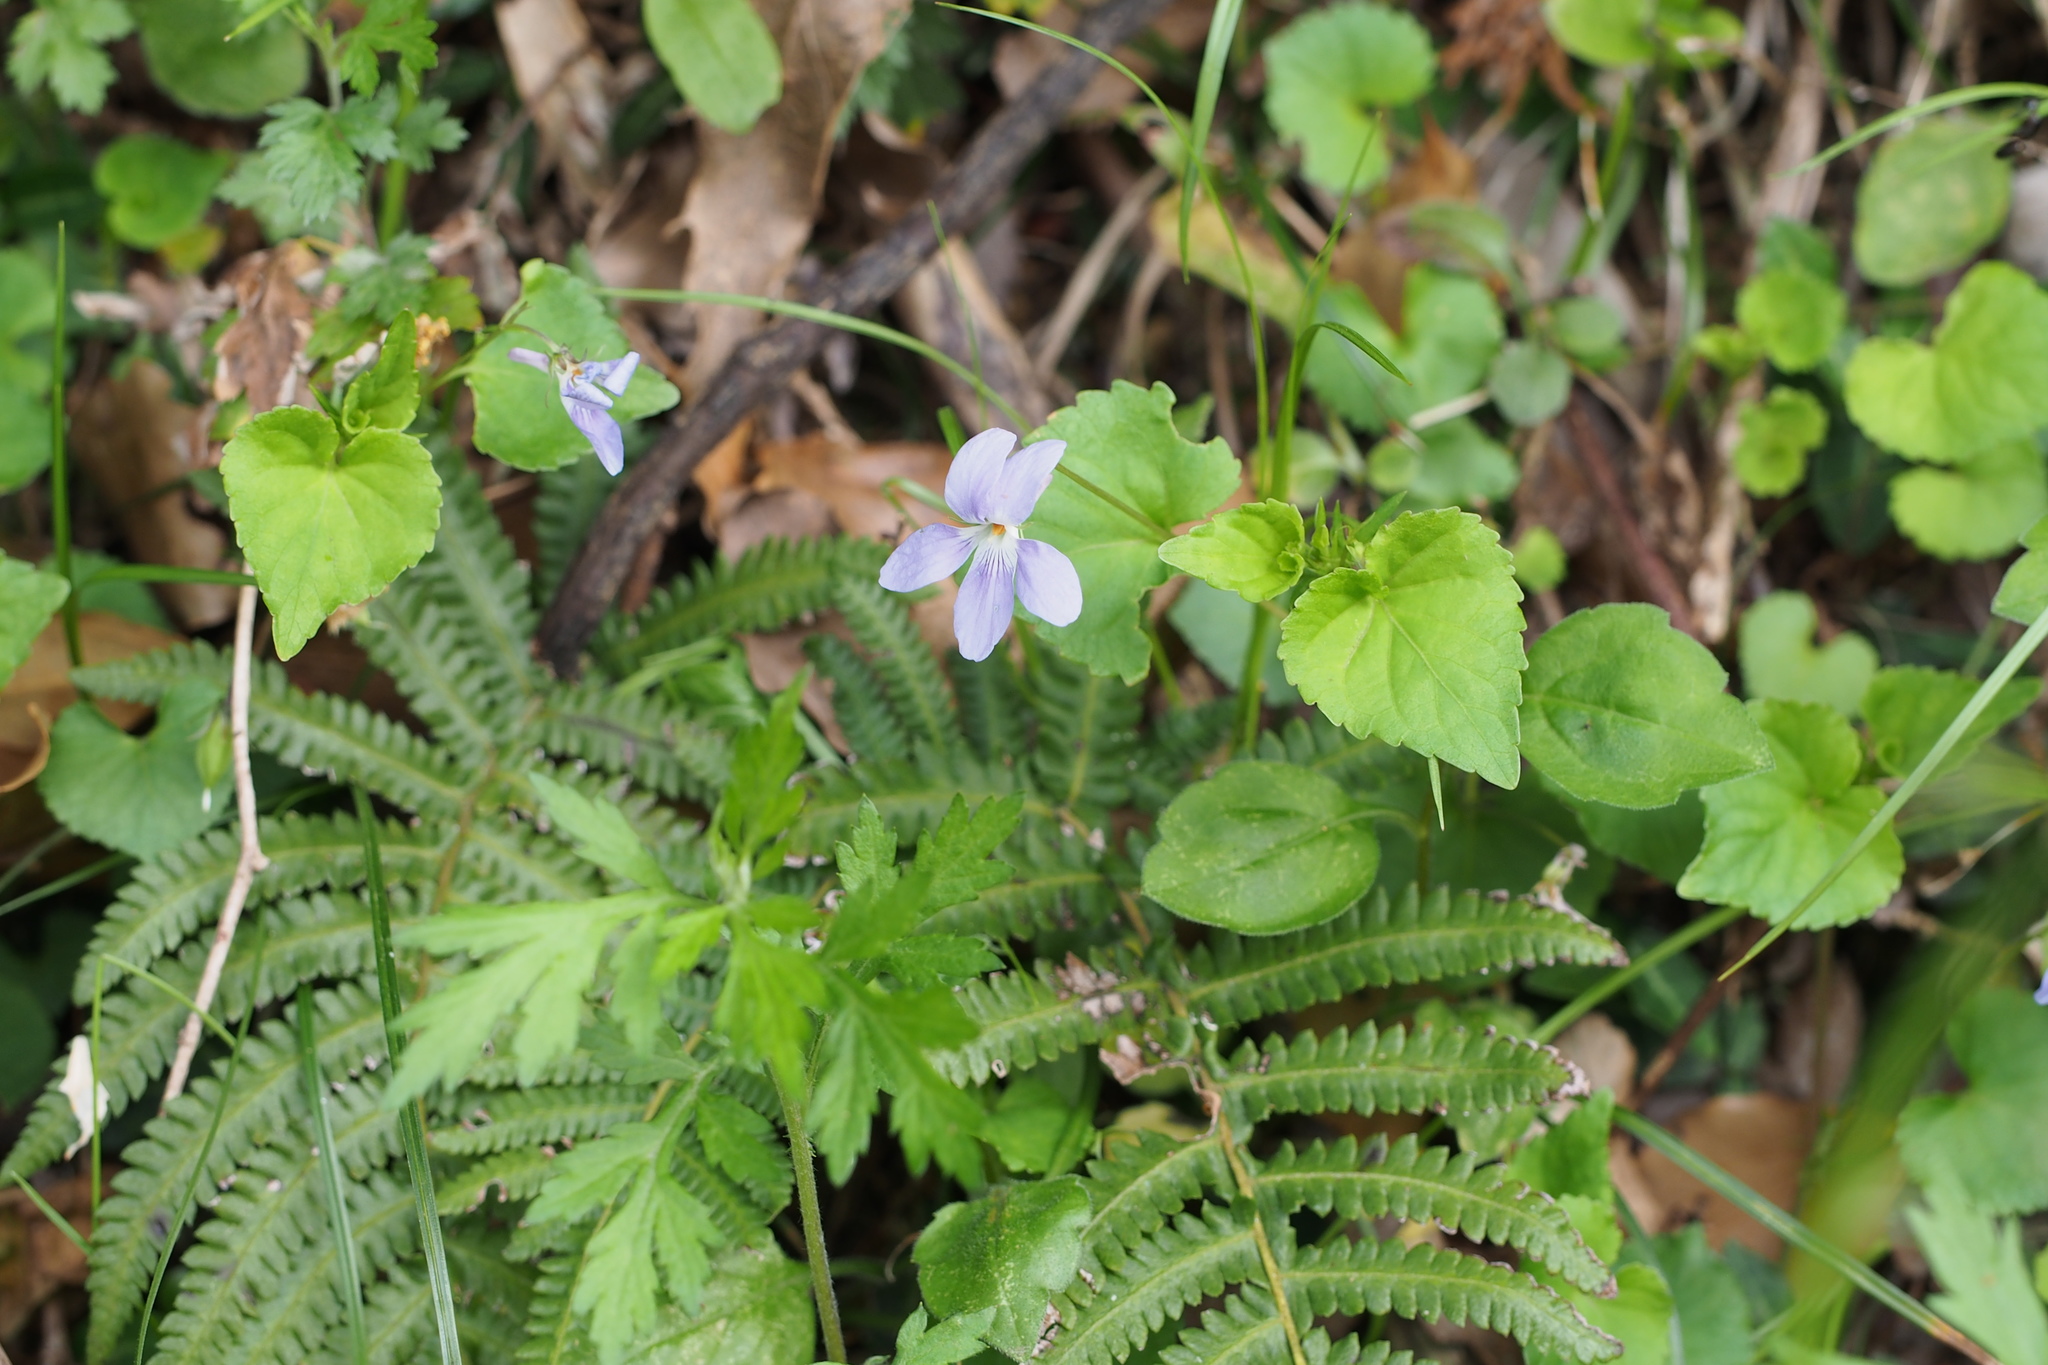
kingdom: Plantae
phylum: Tracheophyta
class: Magnoliopsida
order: Malpighiales
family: Violaceae
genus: Viola
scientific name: Viola grypoceras
